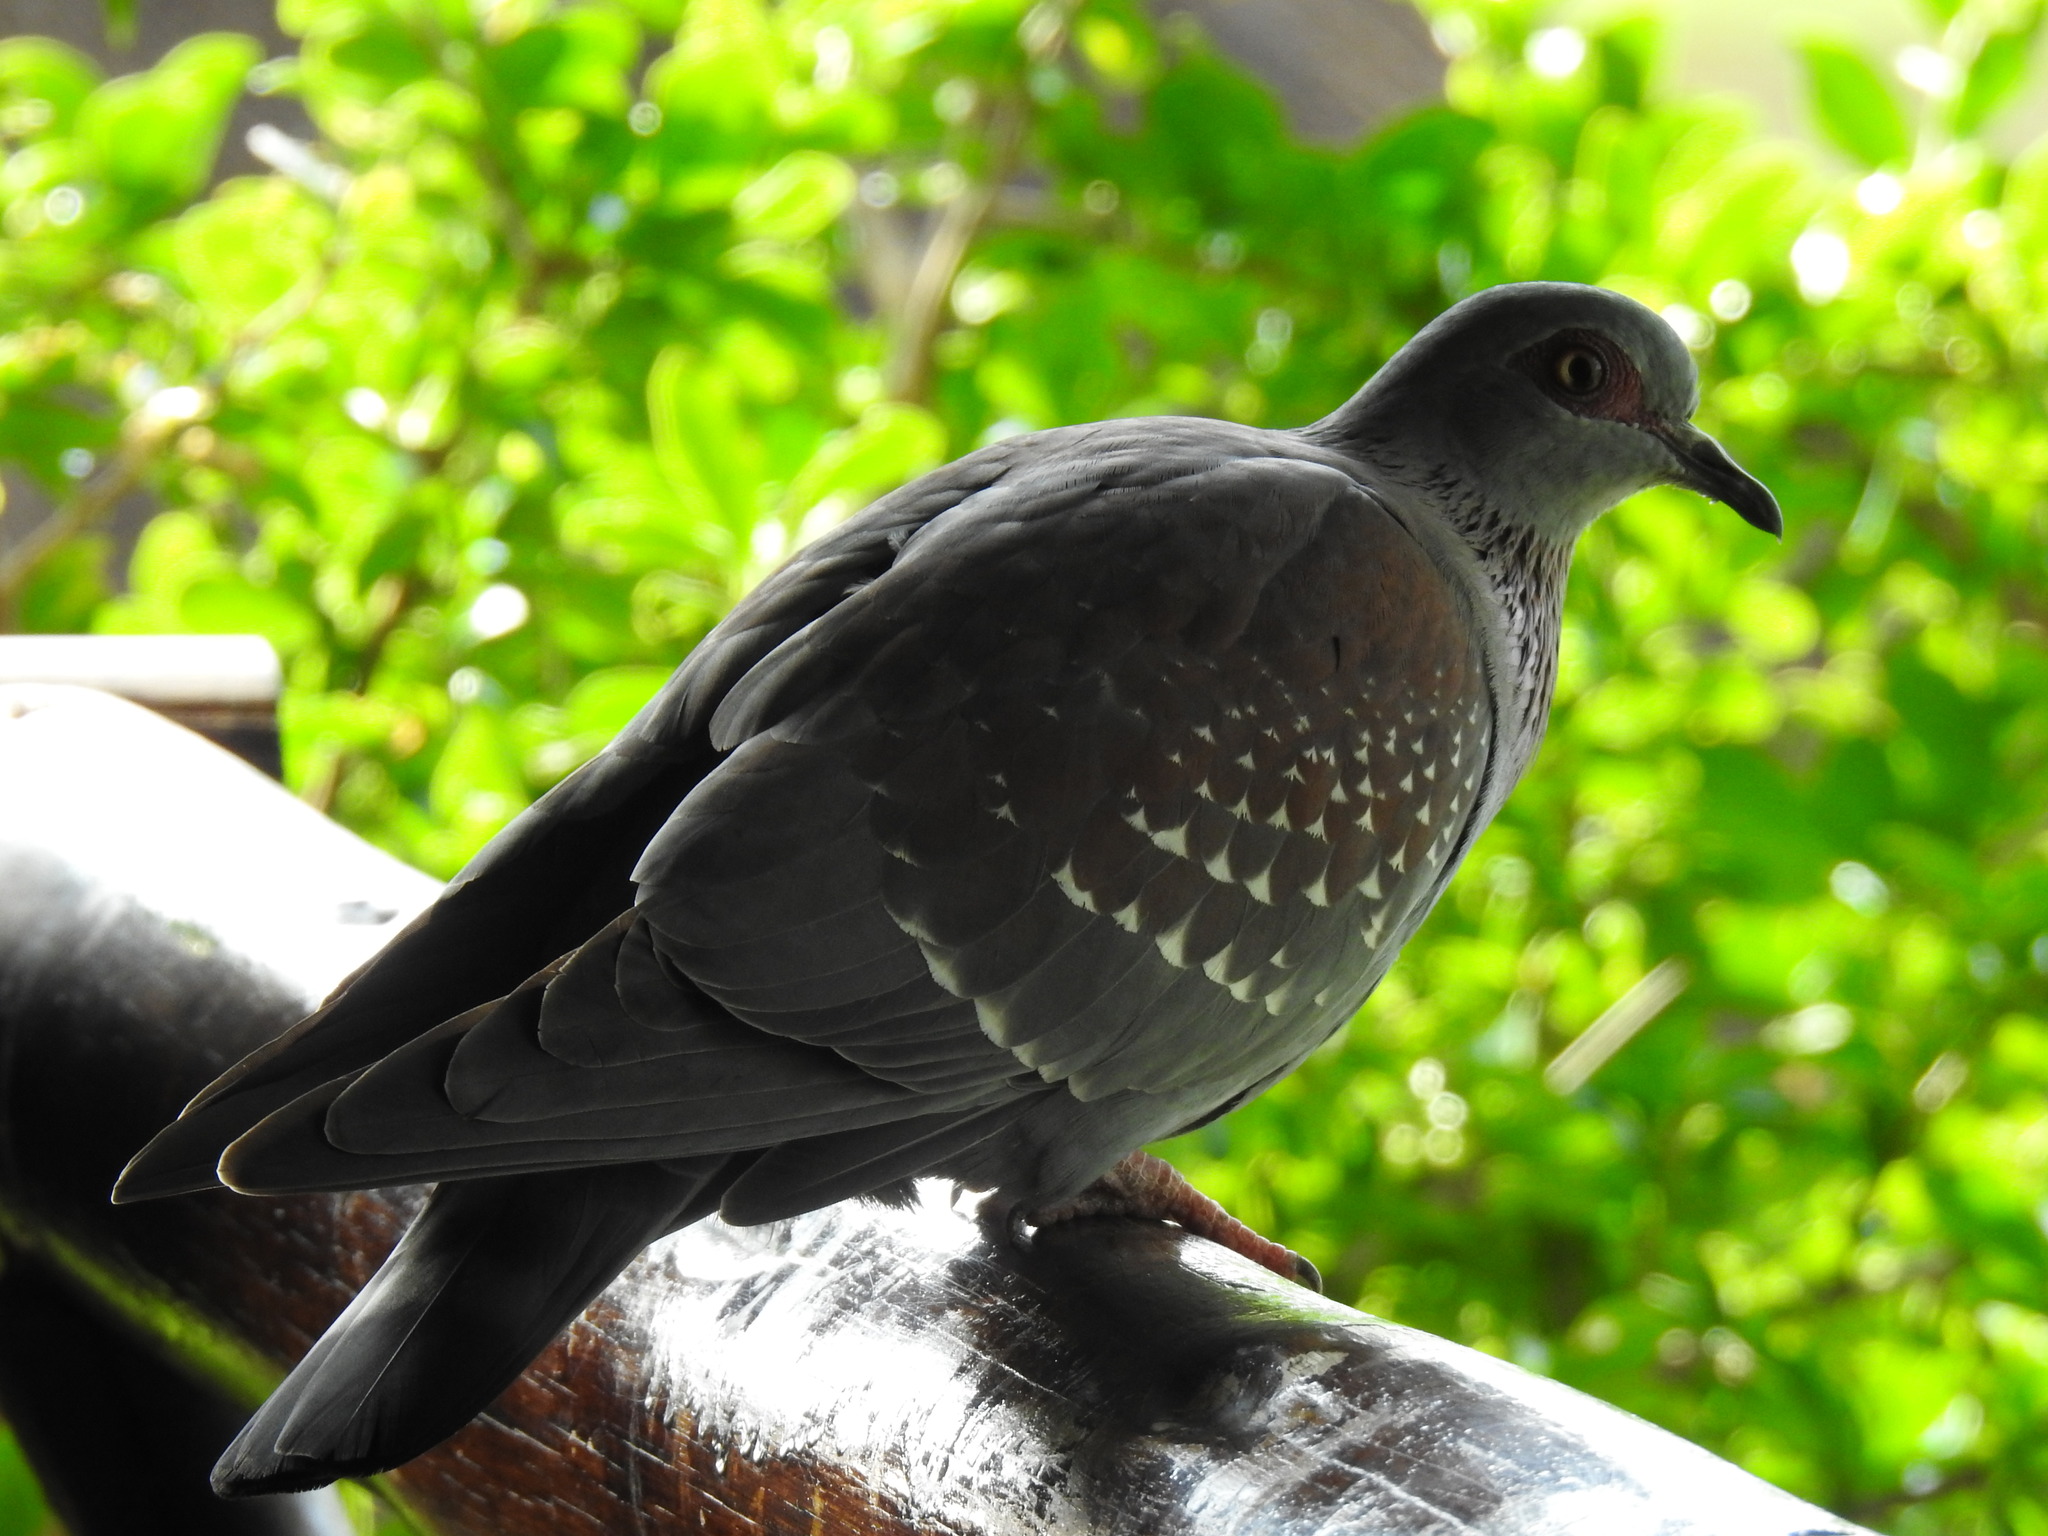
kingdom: Animalia
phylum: Chordata
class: Aves
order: Columbiformes
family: Columbidae
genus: Columba
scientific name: Columba guinea
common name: Speckled pigeon
